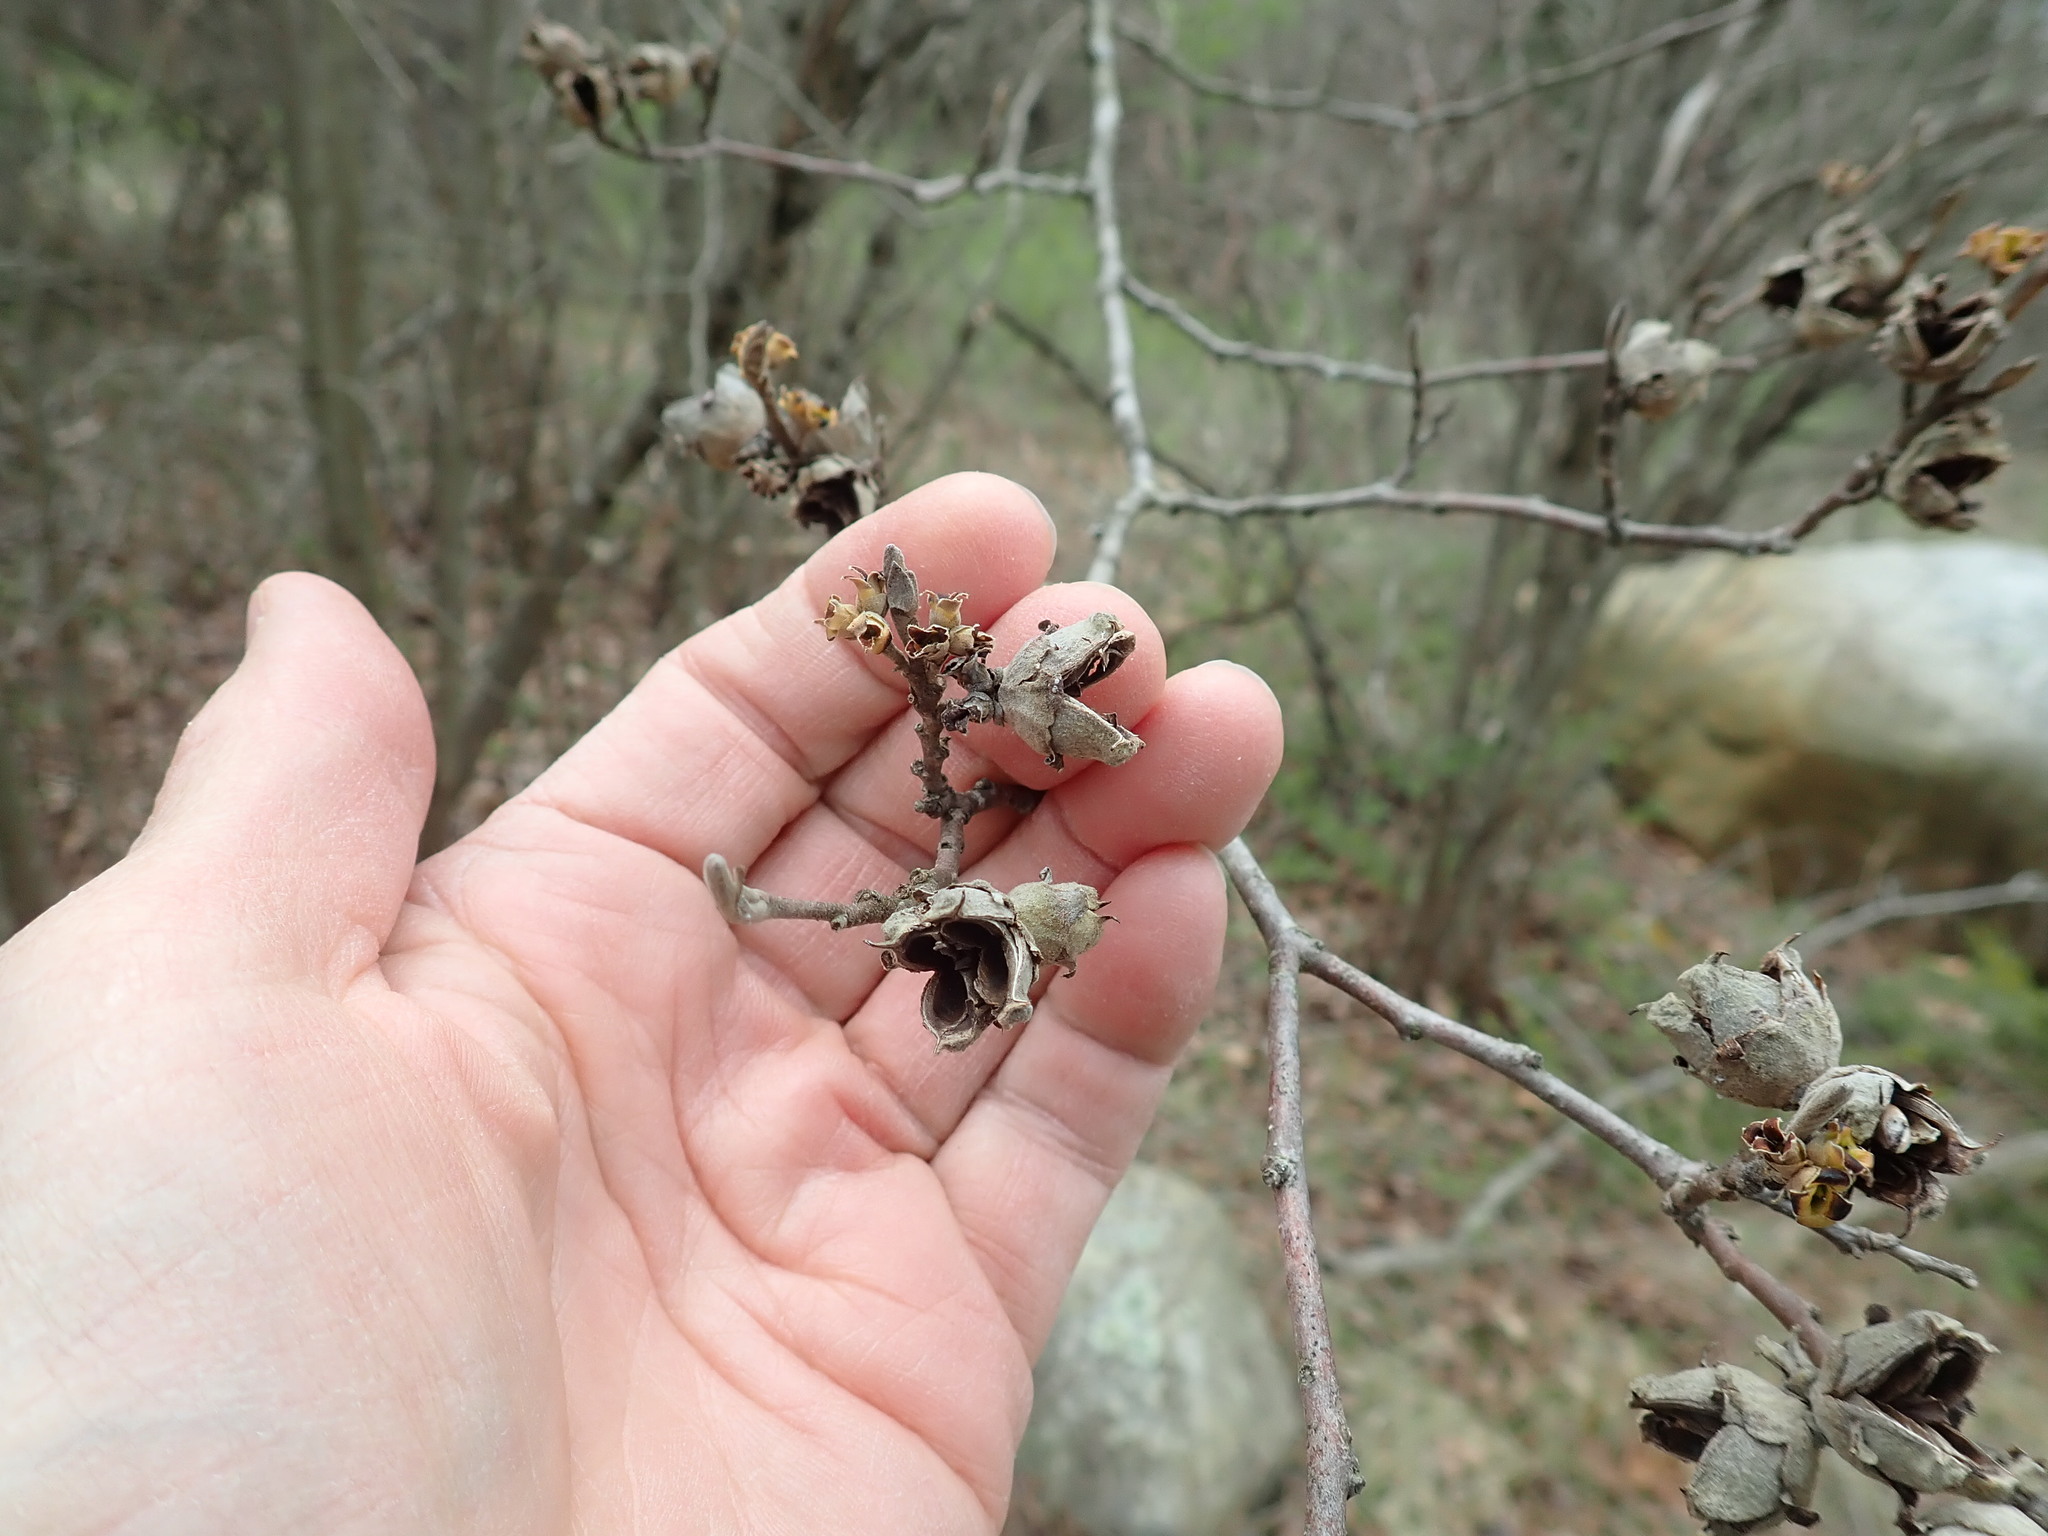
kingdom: Plantae
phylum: Tracheophyta
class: Magnoliopsida
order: Saxifragales
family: Hamamelidaceae
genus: Hamamelis
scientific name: Hamamelis virginiana
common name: Witch-hazel
